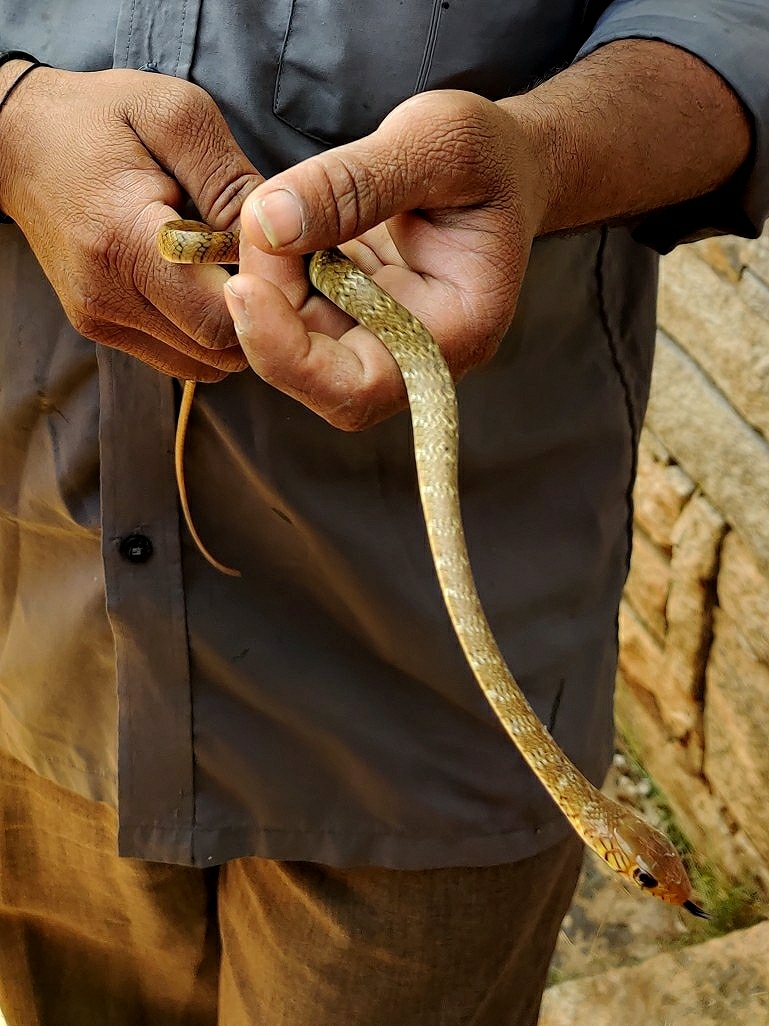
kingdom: Animalia
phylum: Chordata
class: Squamata
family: Colubridae
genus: Ptyas
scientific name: Ptyas mucosa
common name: Oriental ratsnake
